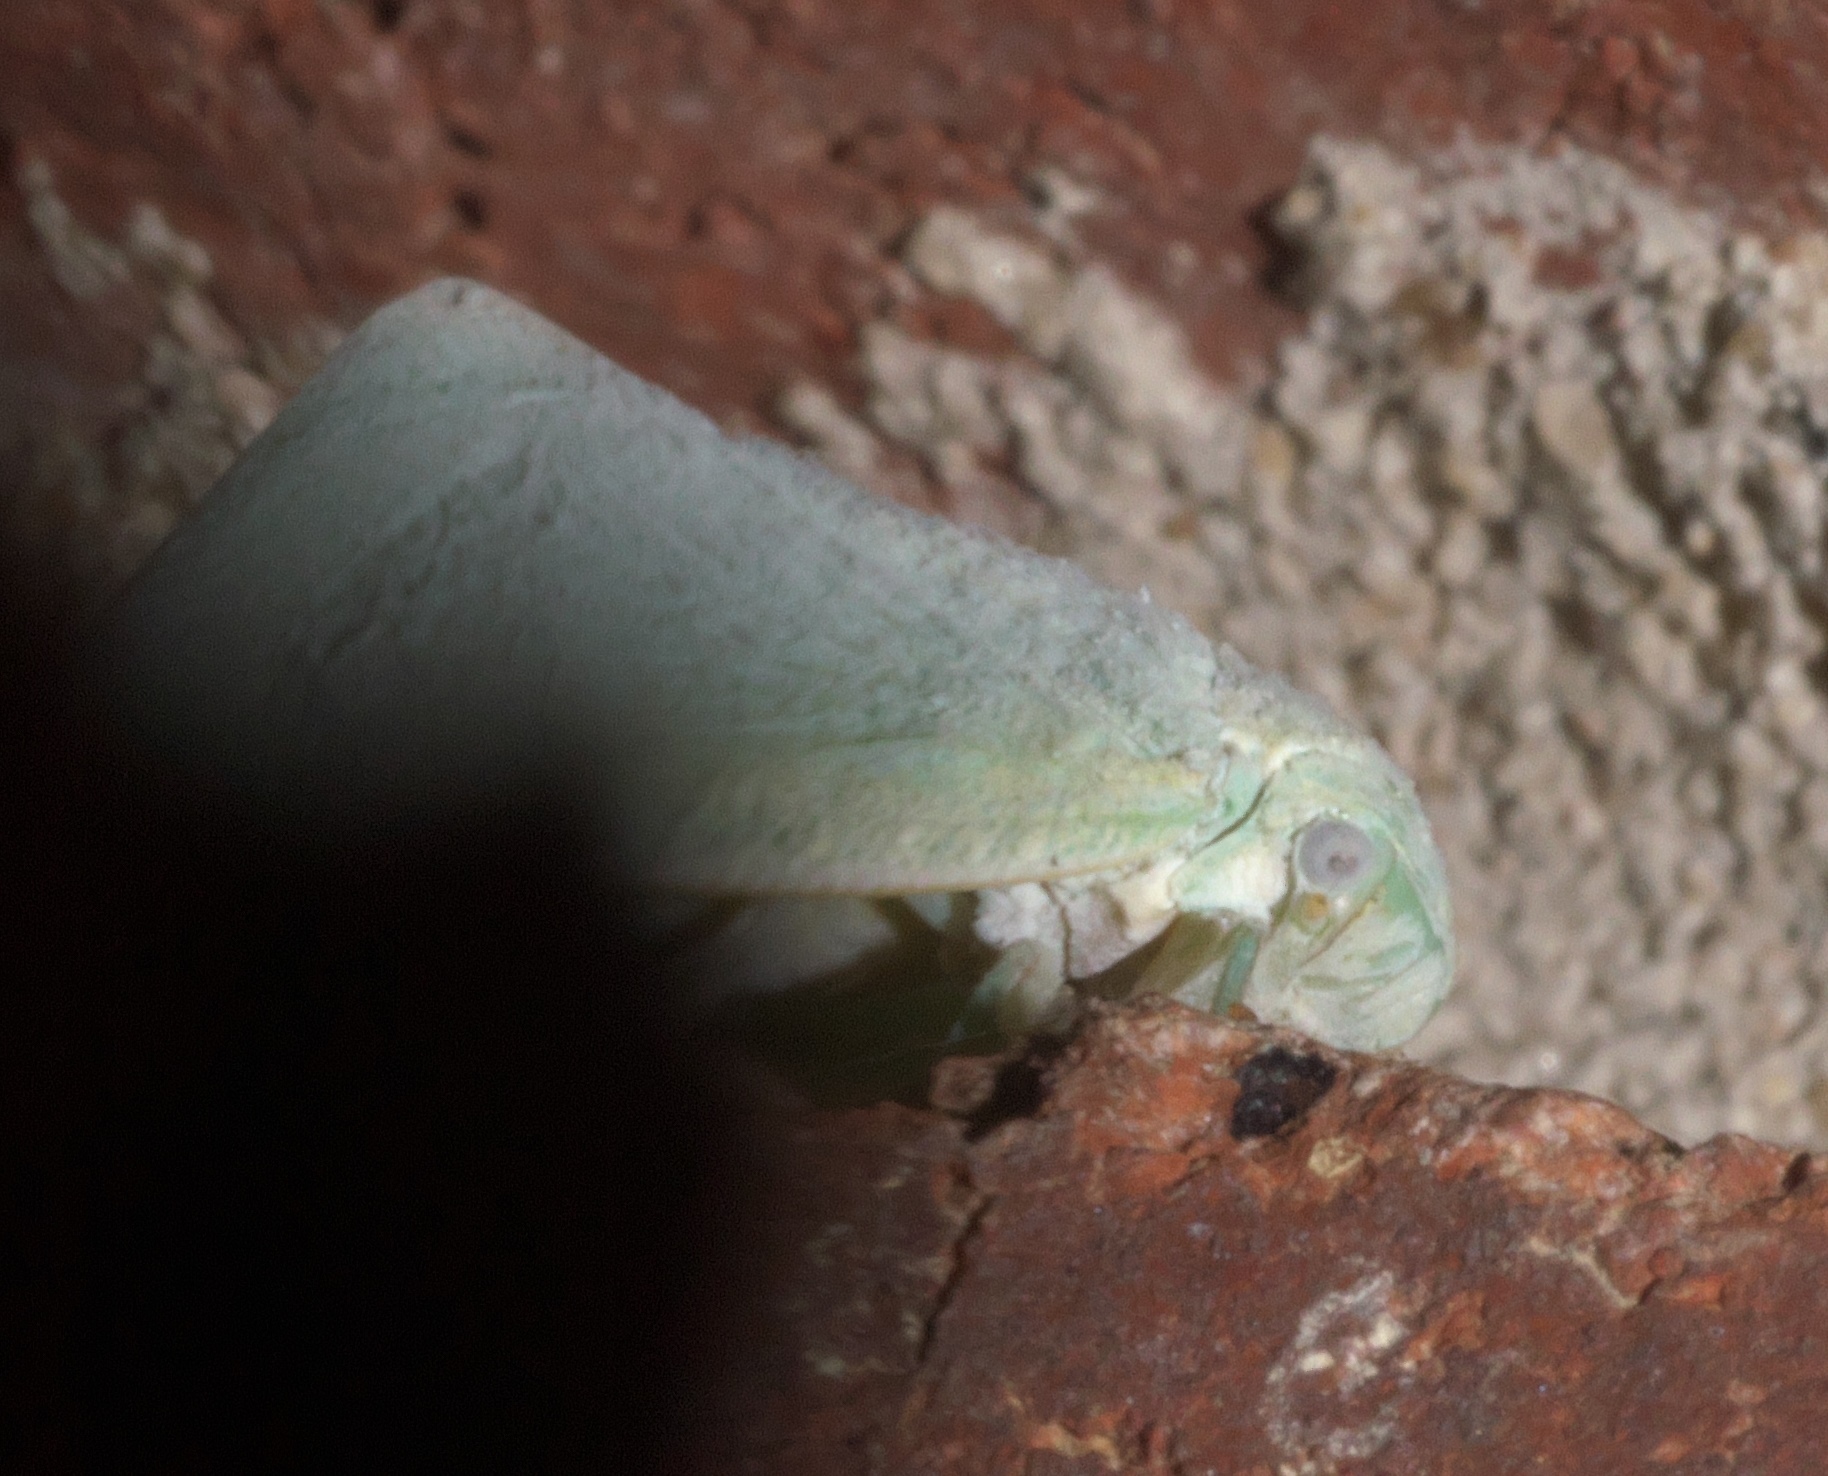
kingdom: Animalia
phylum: Arthropoda
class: Insecta
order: Hemiptera
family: Flatidae
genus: Flatormenis
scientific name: Flatormenis proxima
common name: Northern flatid planthopper
